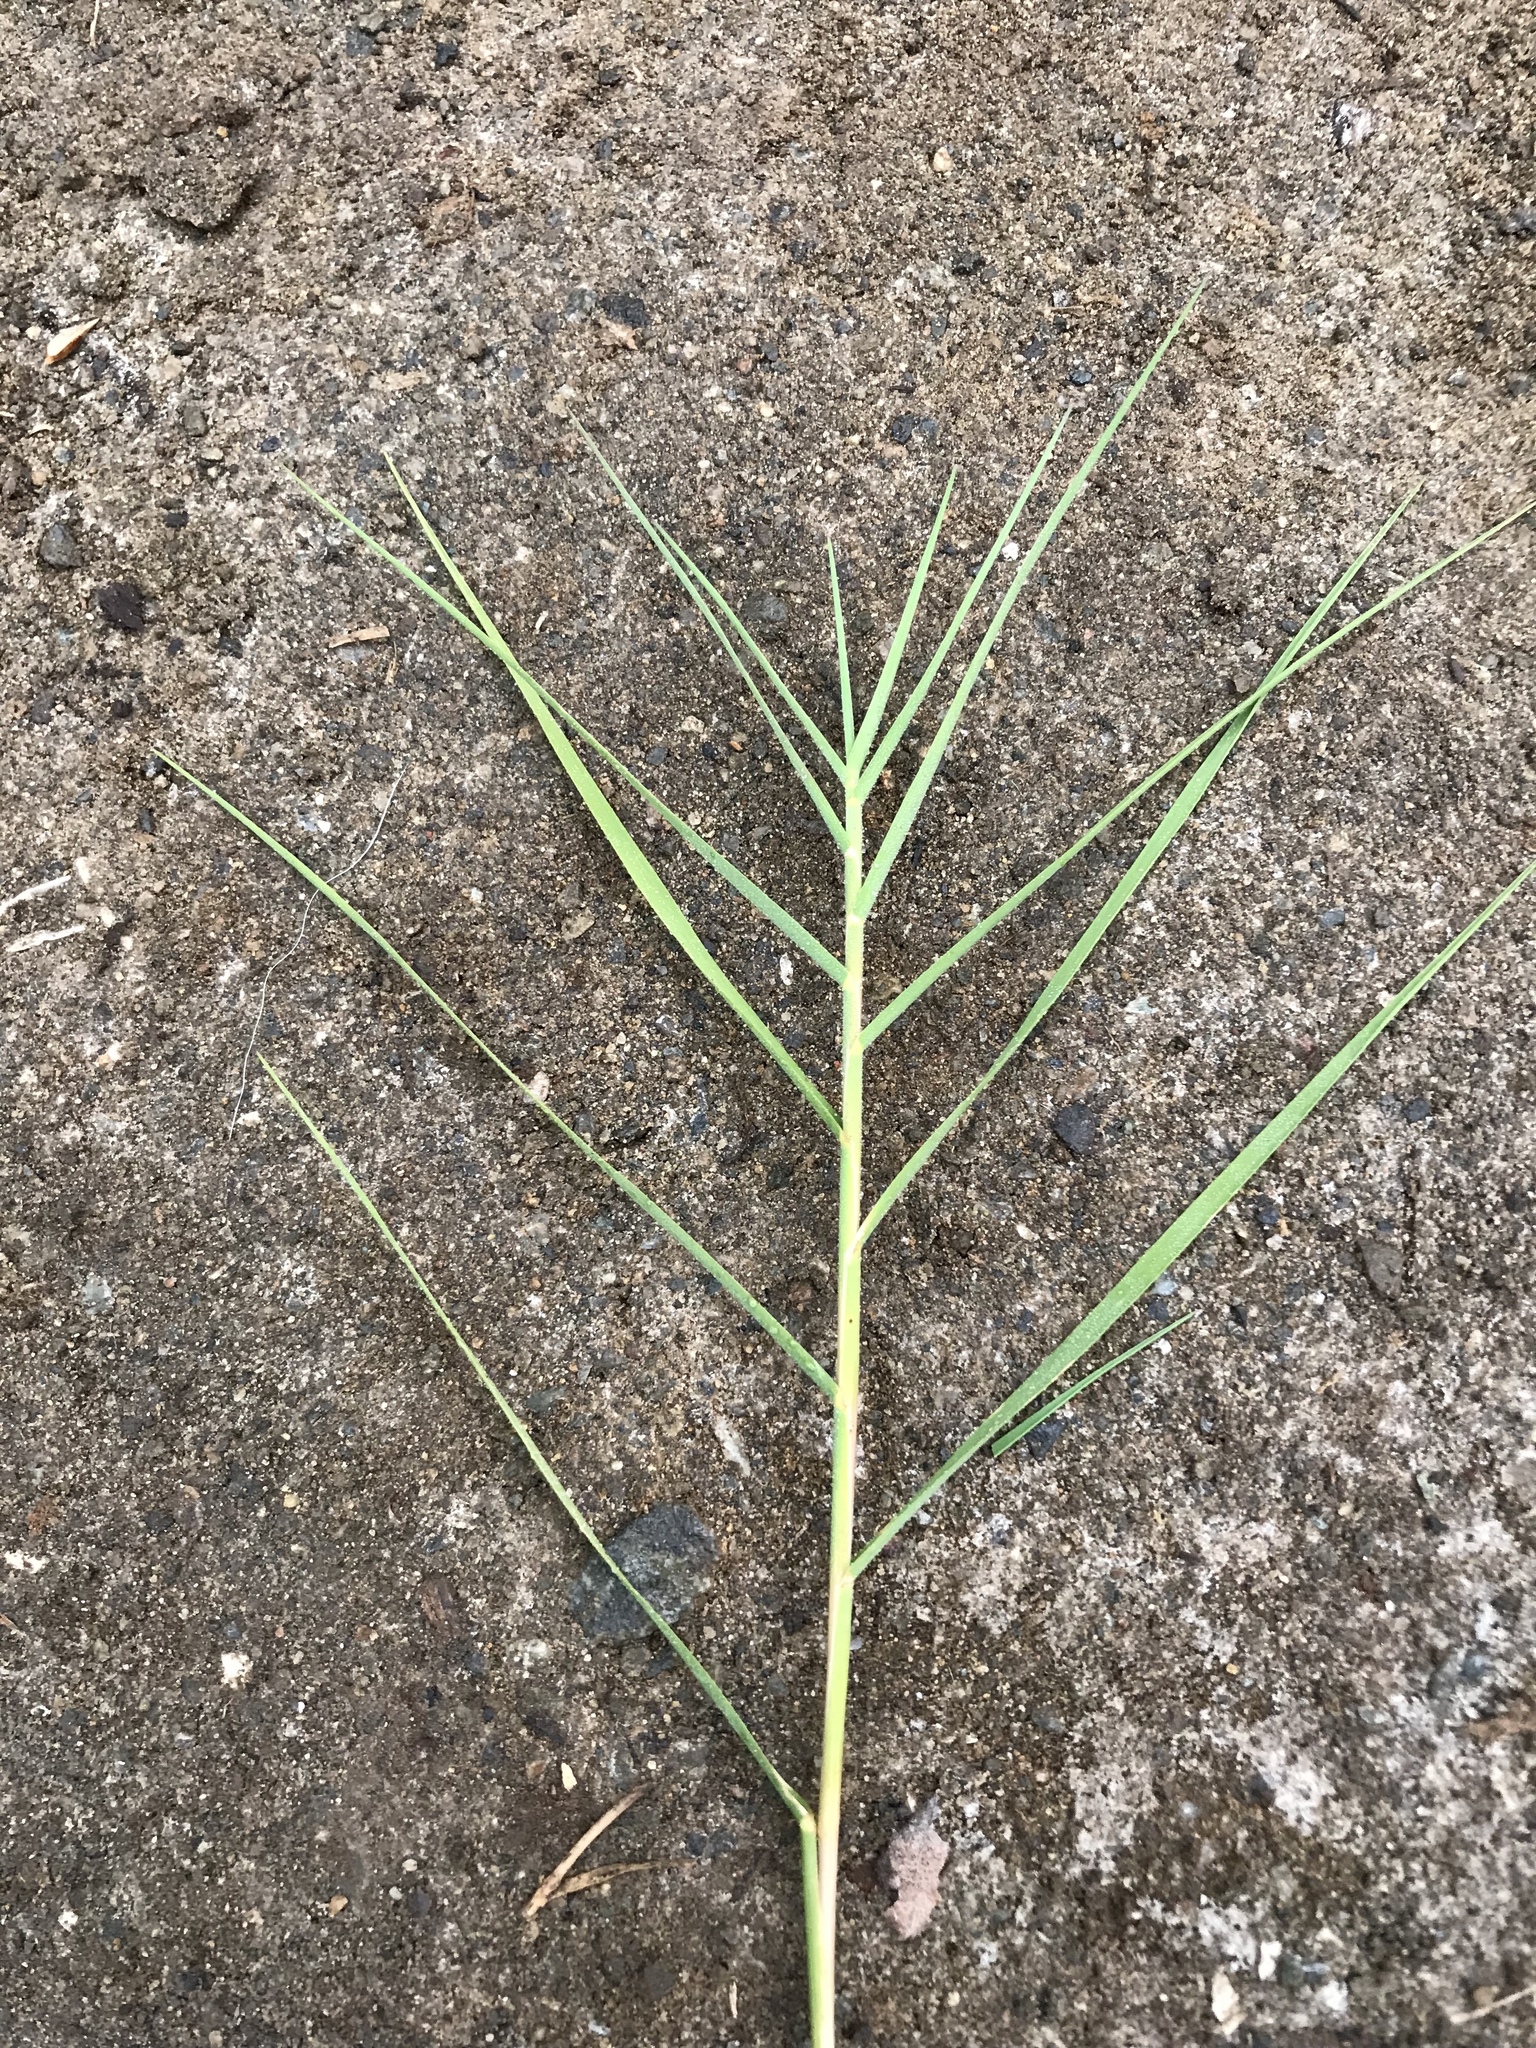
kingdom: Plantae
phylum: Tracheophyta
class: Liliopsida
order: Poales
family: Poaceae
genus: Distichlis
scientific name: Distichlis spicata
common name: Saltgrass
